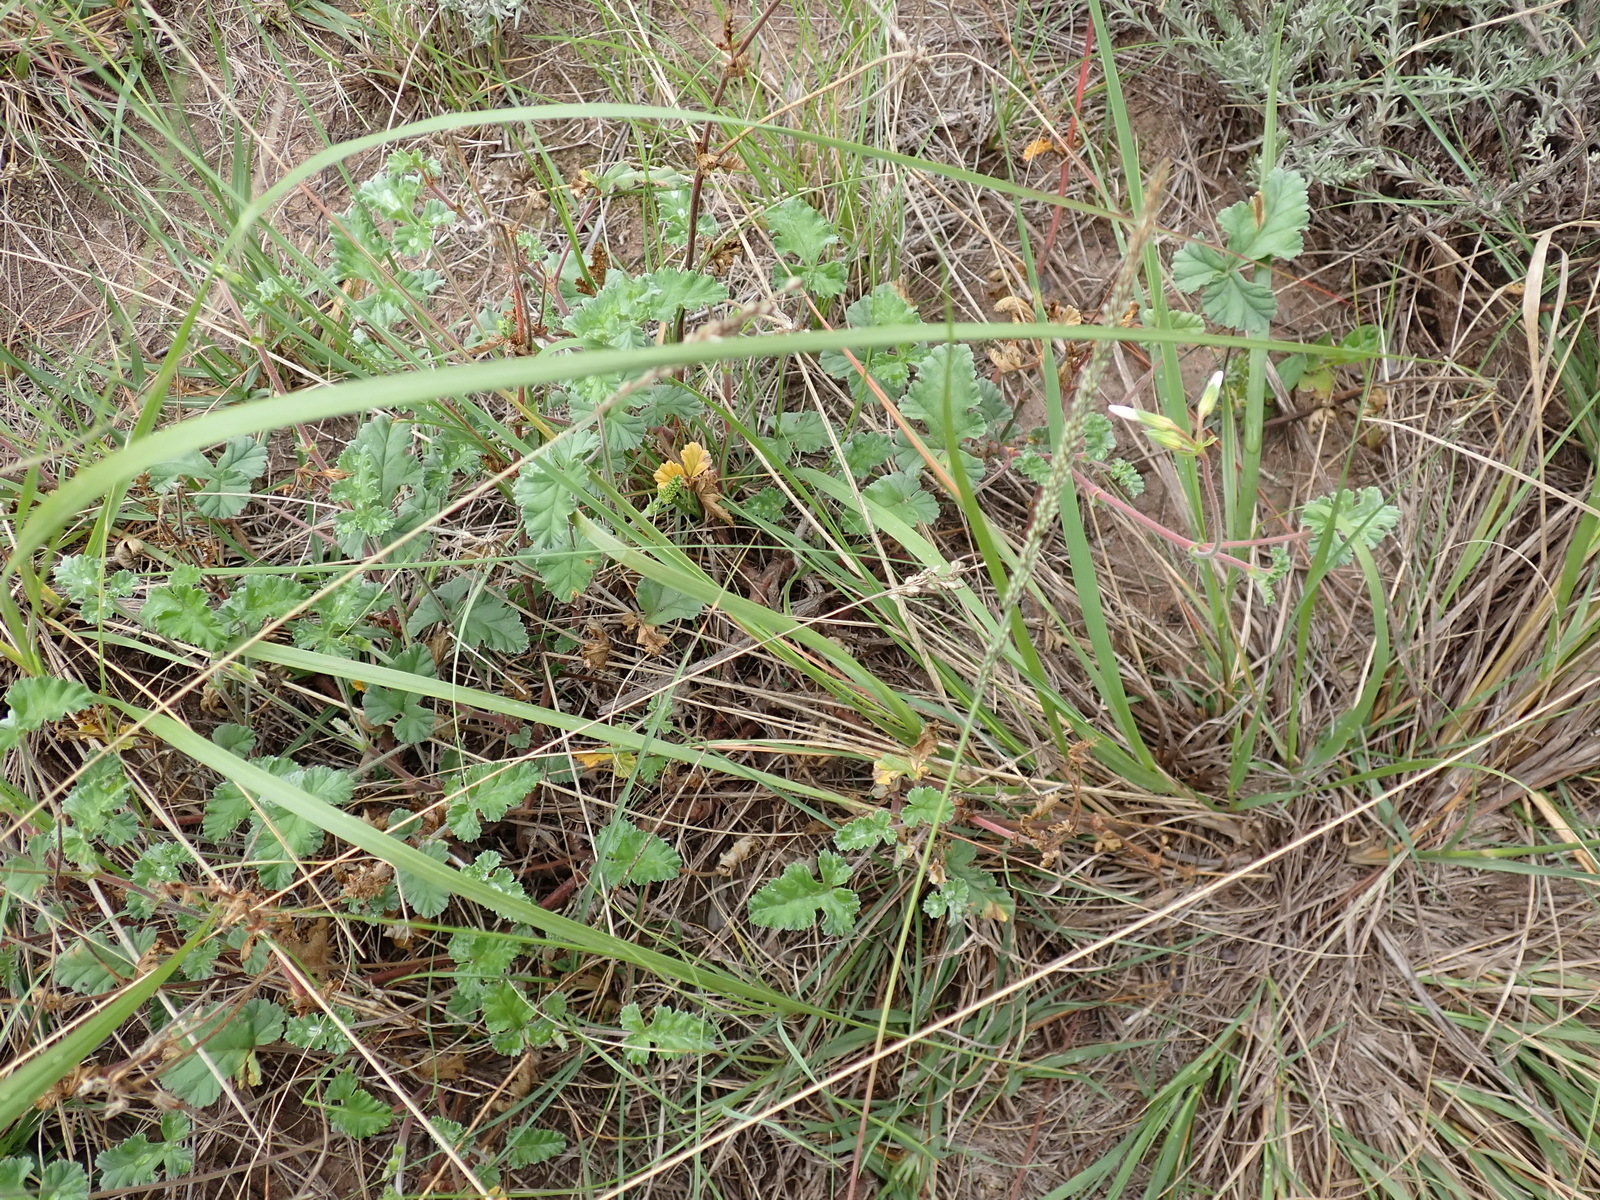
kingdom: Plantae
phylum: Tracheophyta
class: Magnoliopsida
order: Geraniales
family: Geraniaceae
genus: Pelargonium
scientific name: Pelargonium candicans
